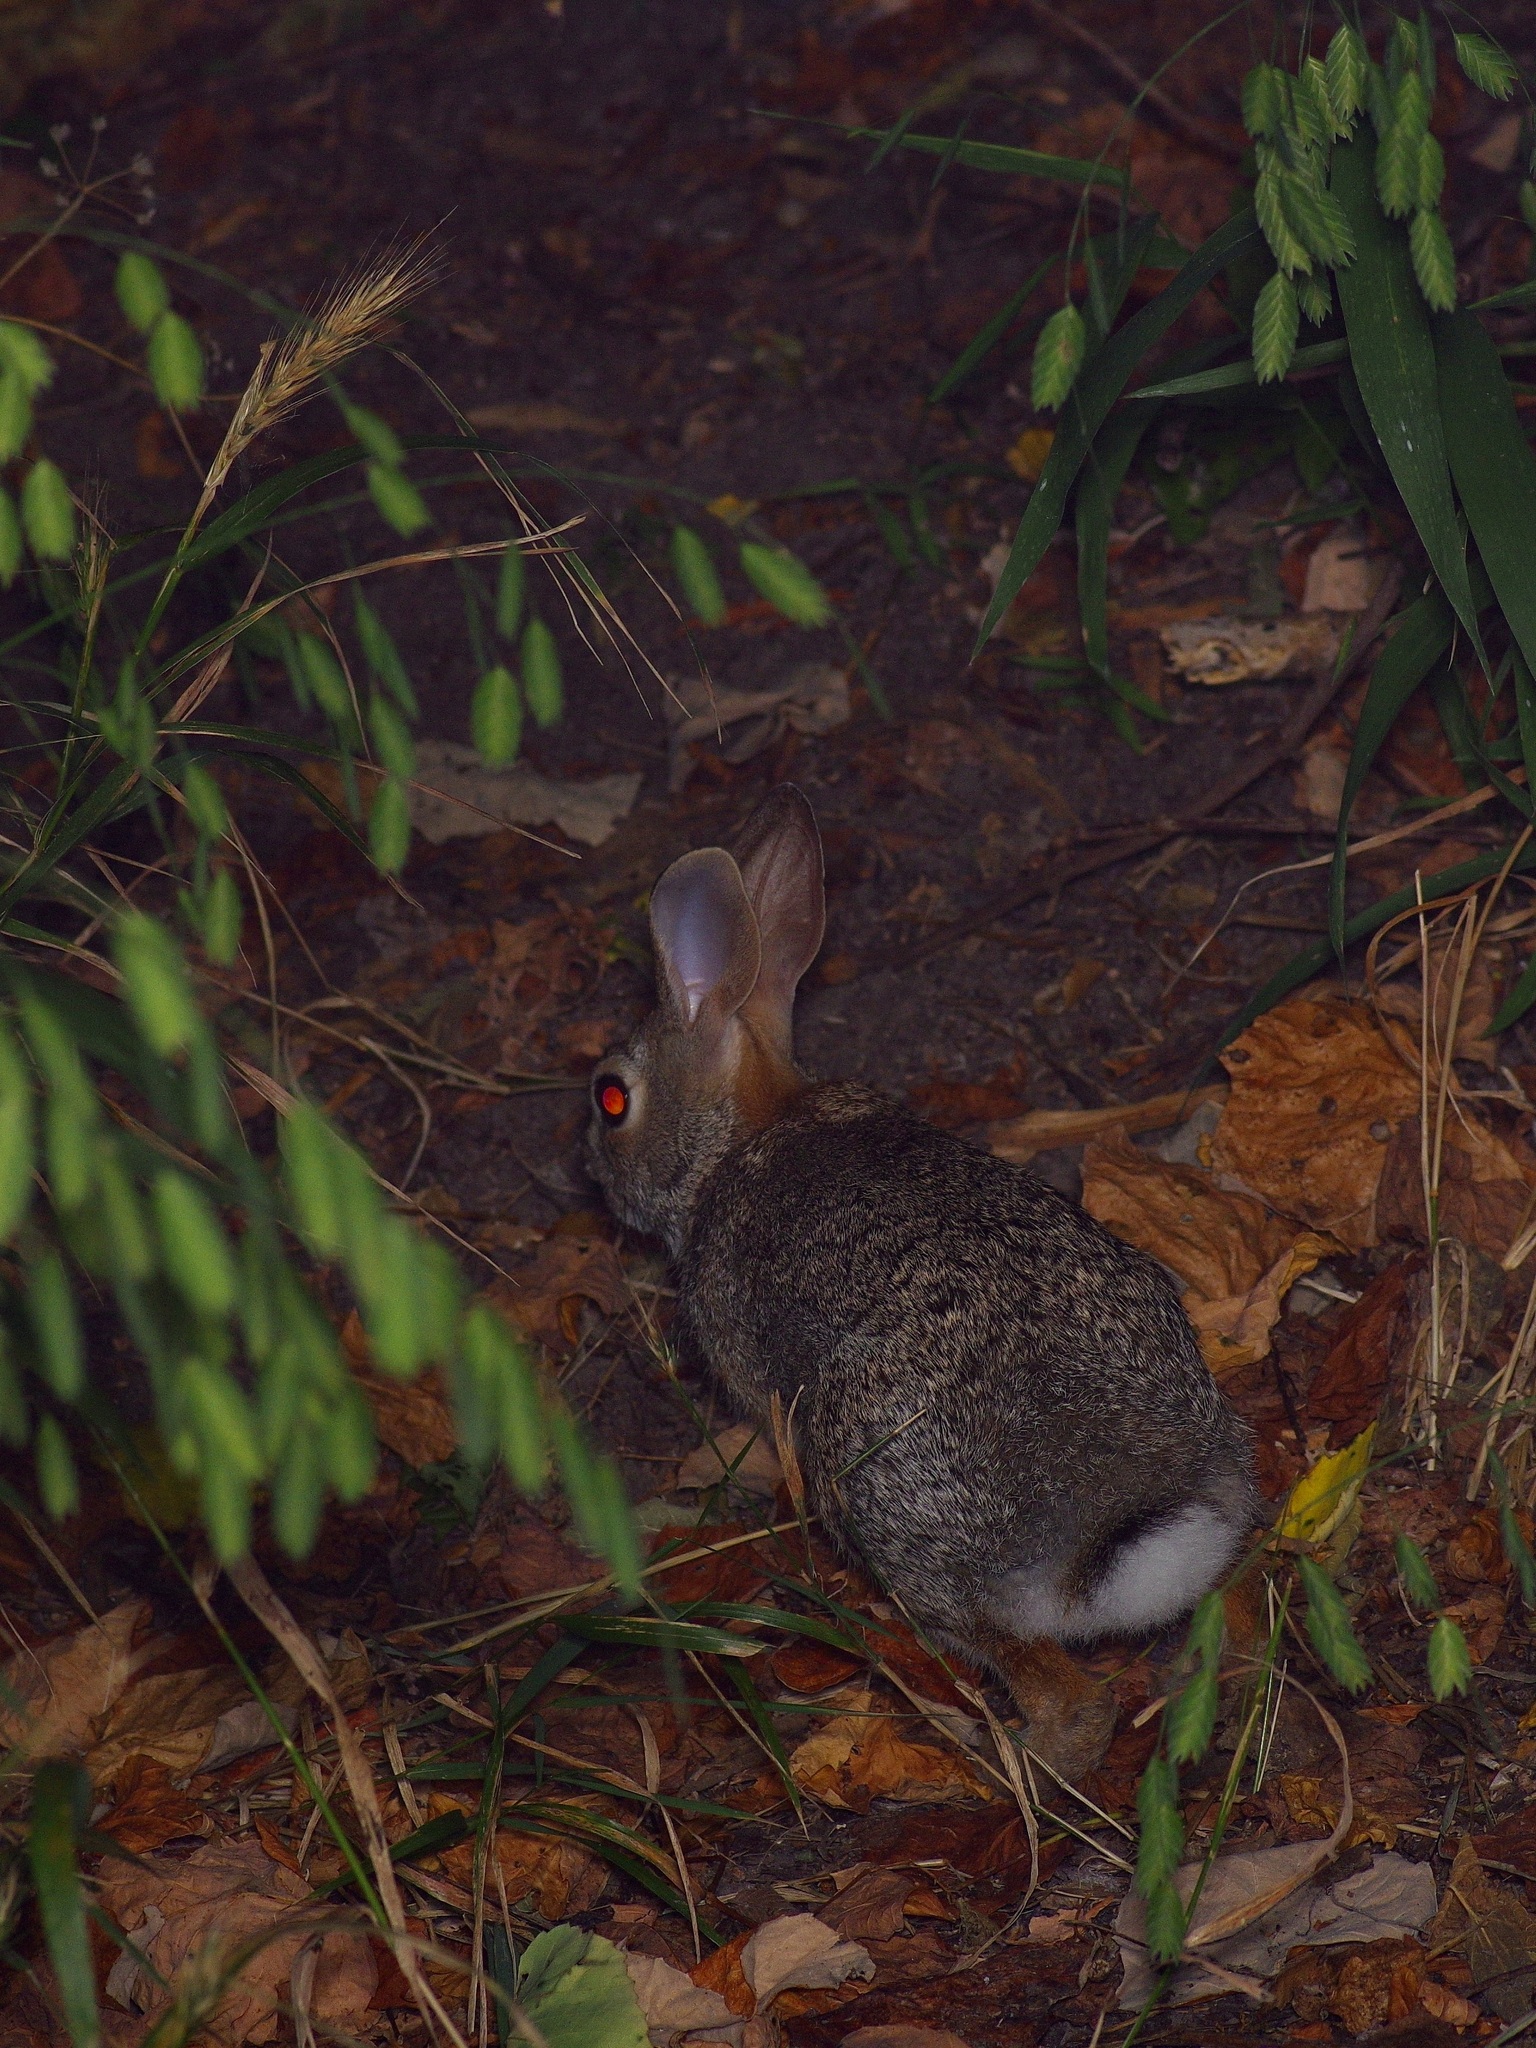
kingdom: Animalia
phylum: Chordata
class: Mammalia
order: Lagomorpha
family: Leporidae
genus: Sylvilagus
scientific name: Sylvilagus floridanus
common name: Eastern cottontail
